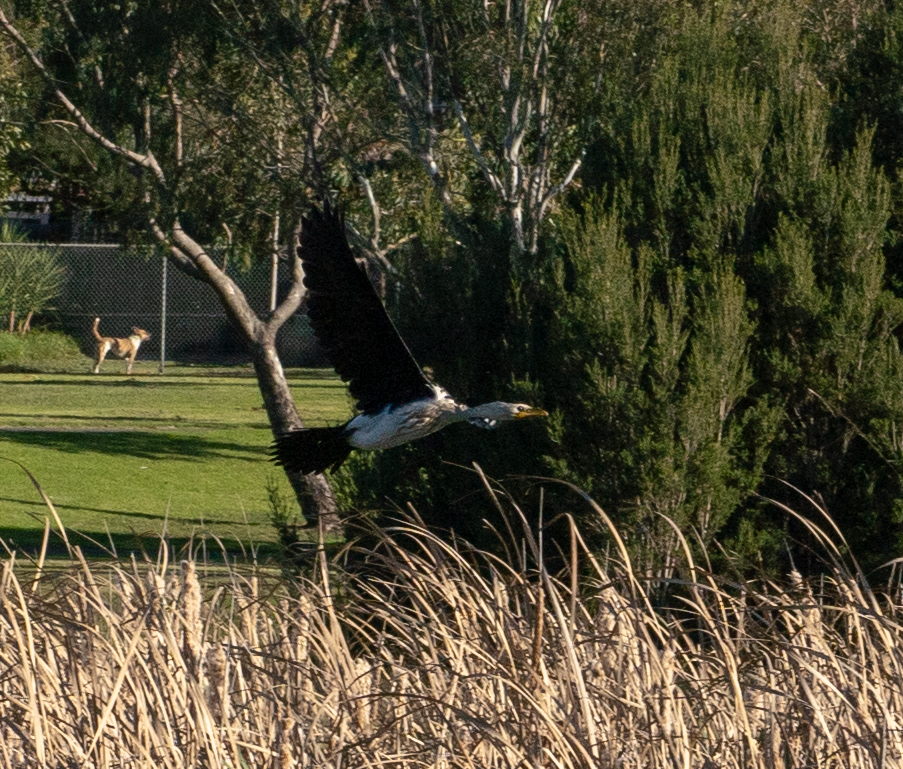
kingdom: Animalia
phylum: Chordata
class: Aves
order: Suliformes
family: Phalacrocoracidae
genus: Microcarbo
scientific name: Microcarbo melanoleucos
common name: Little pied cormorant
